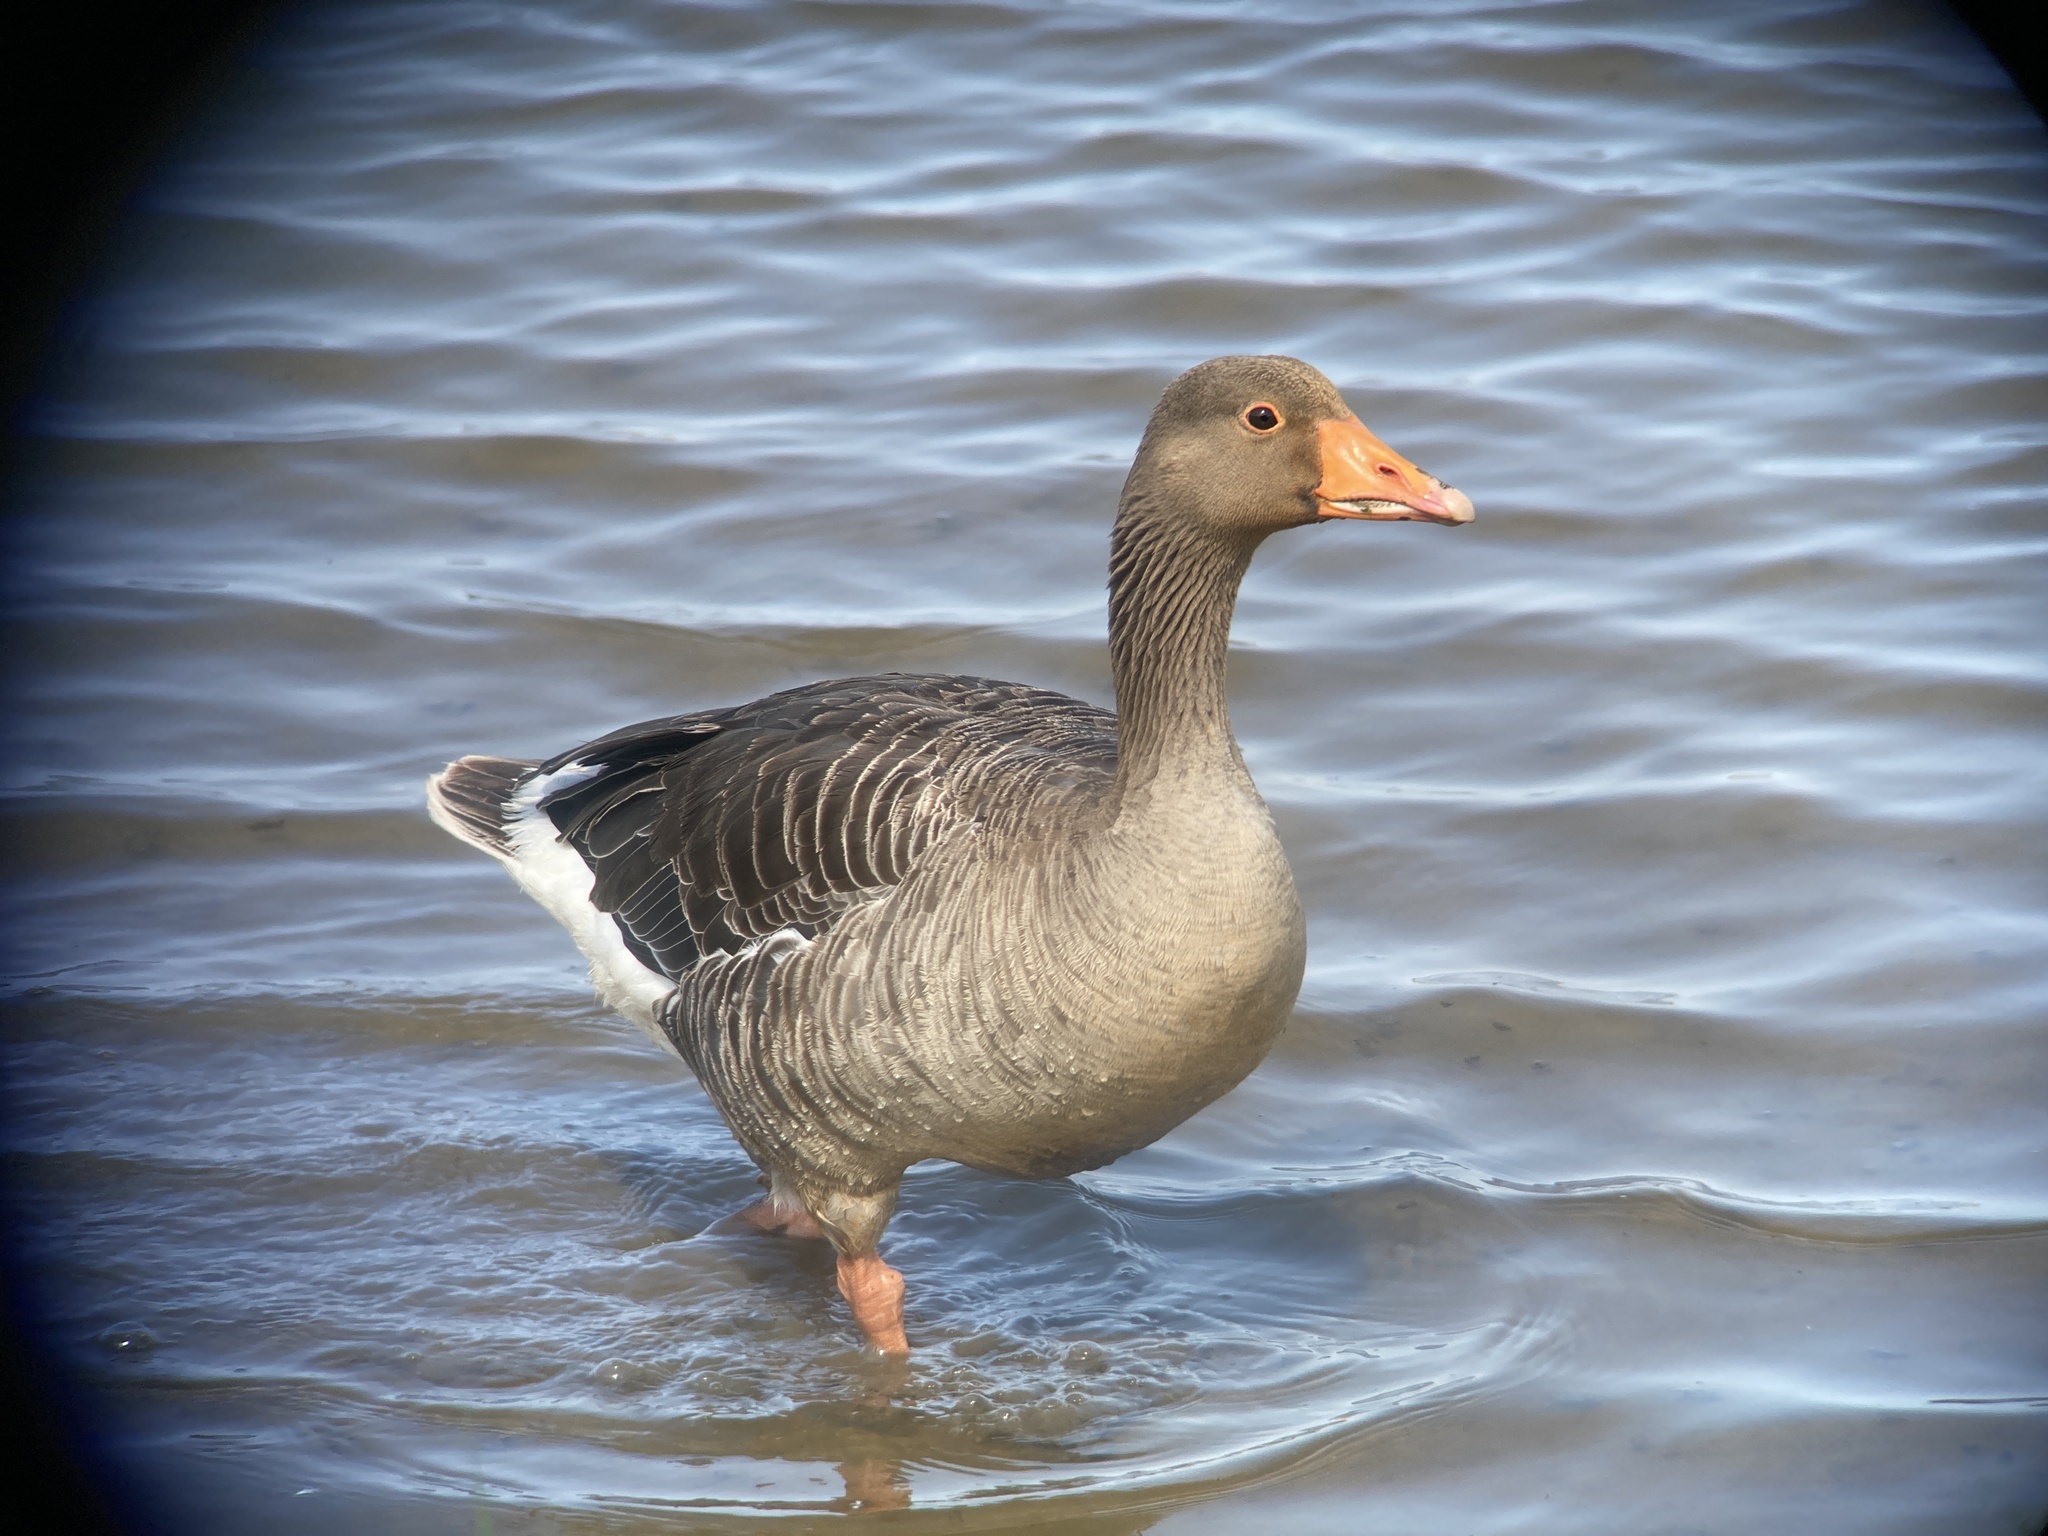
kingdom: Animalia
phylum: Chordata
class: Aves
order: Anseriformes
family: Anatidae
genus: Anser
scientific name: Anser anser
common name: Greylag goose
